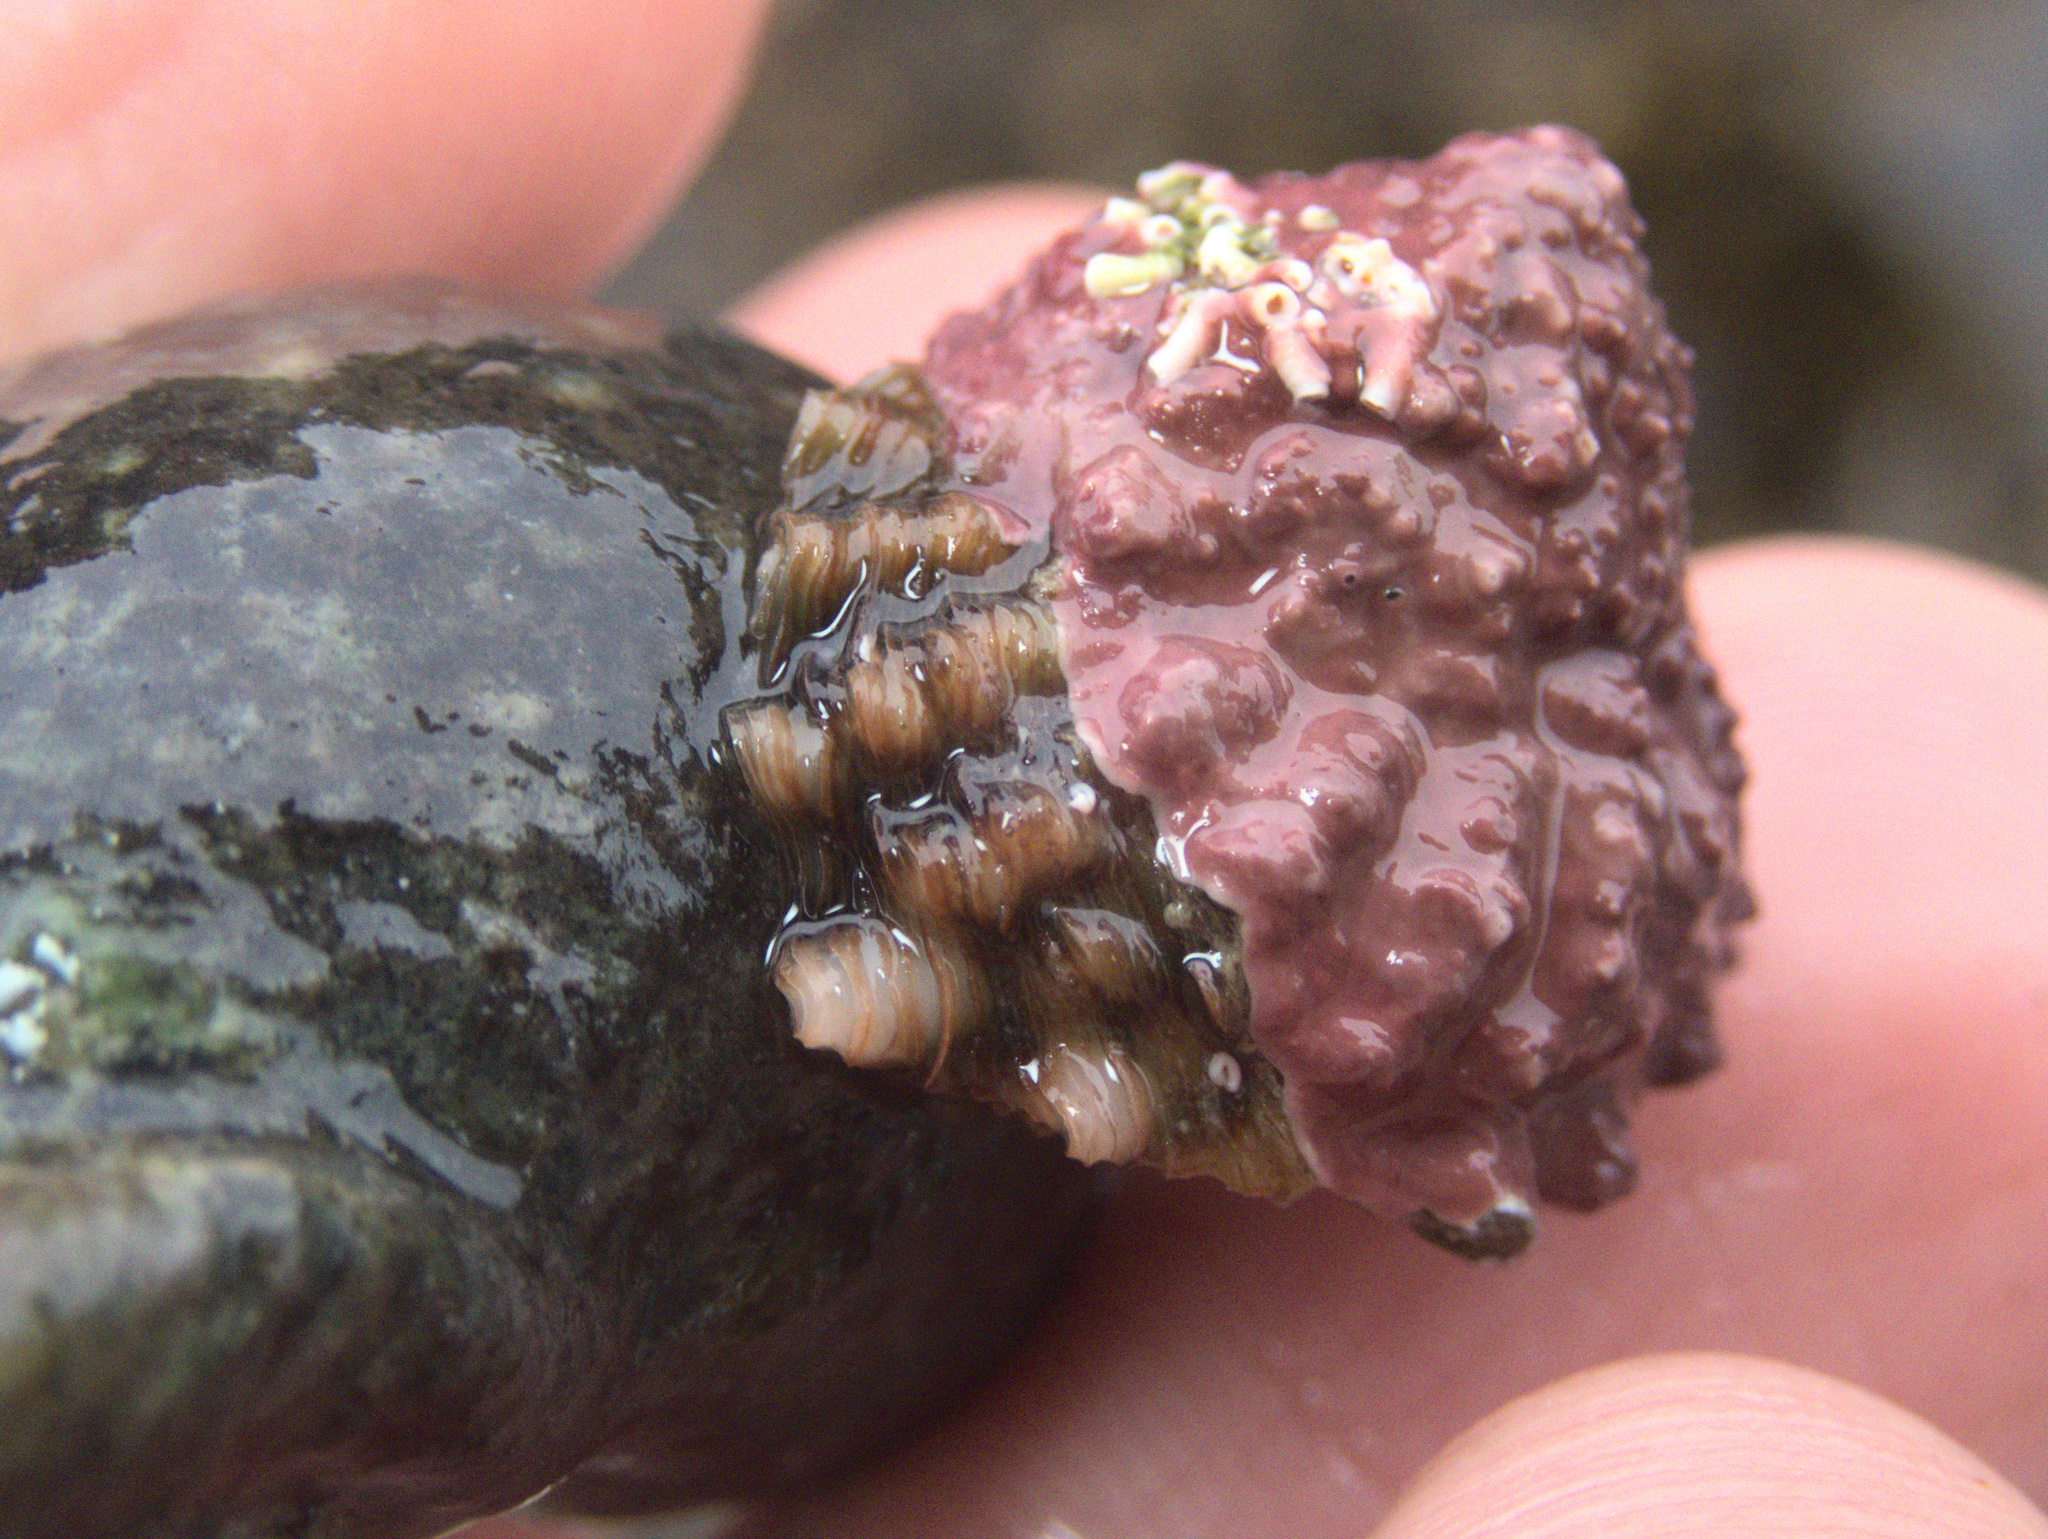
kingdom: Animalia
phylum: Mollusca
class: Gastropoda
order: Trochida
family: Turbinidae
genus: Cookia
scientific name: Cookia sulcata
